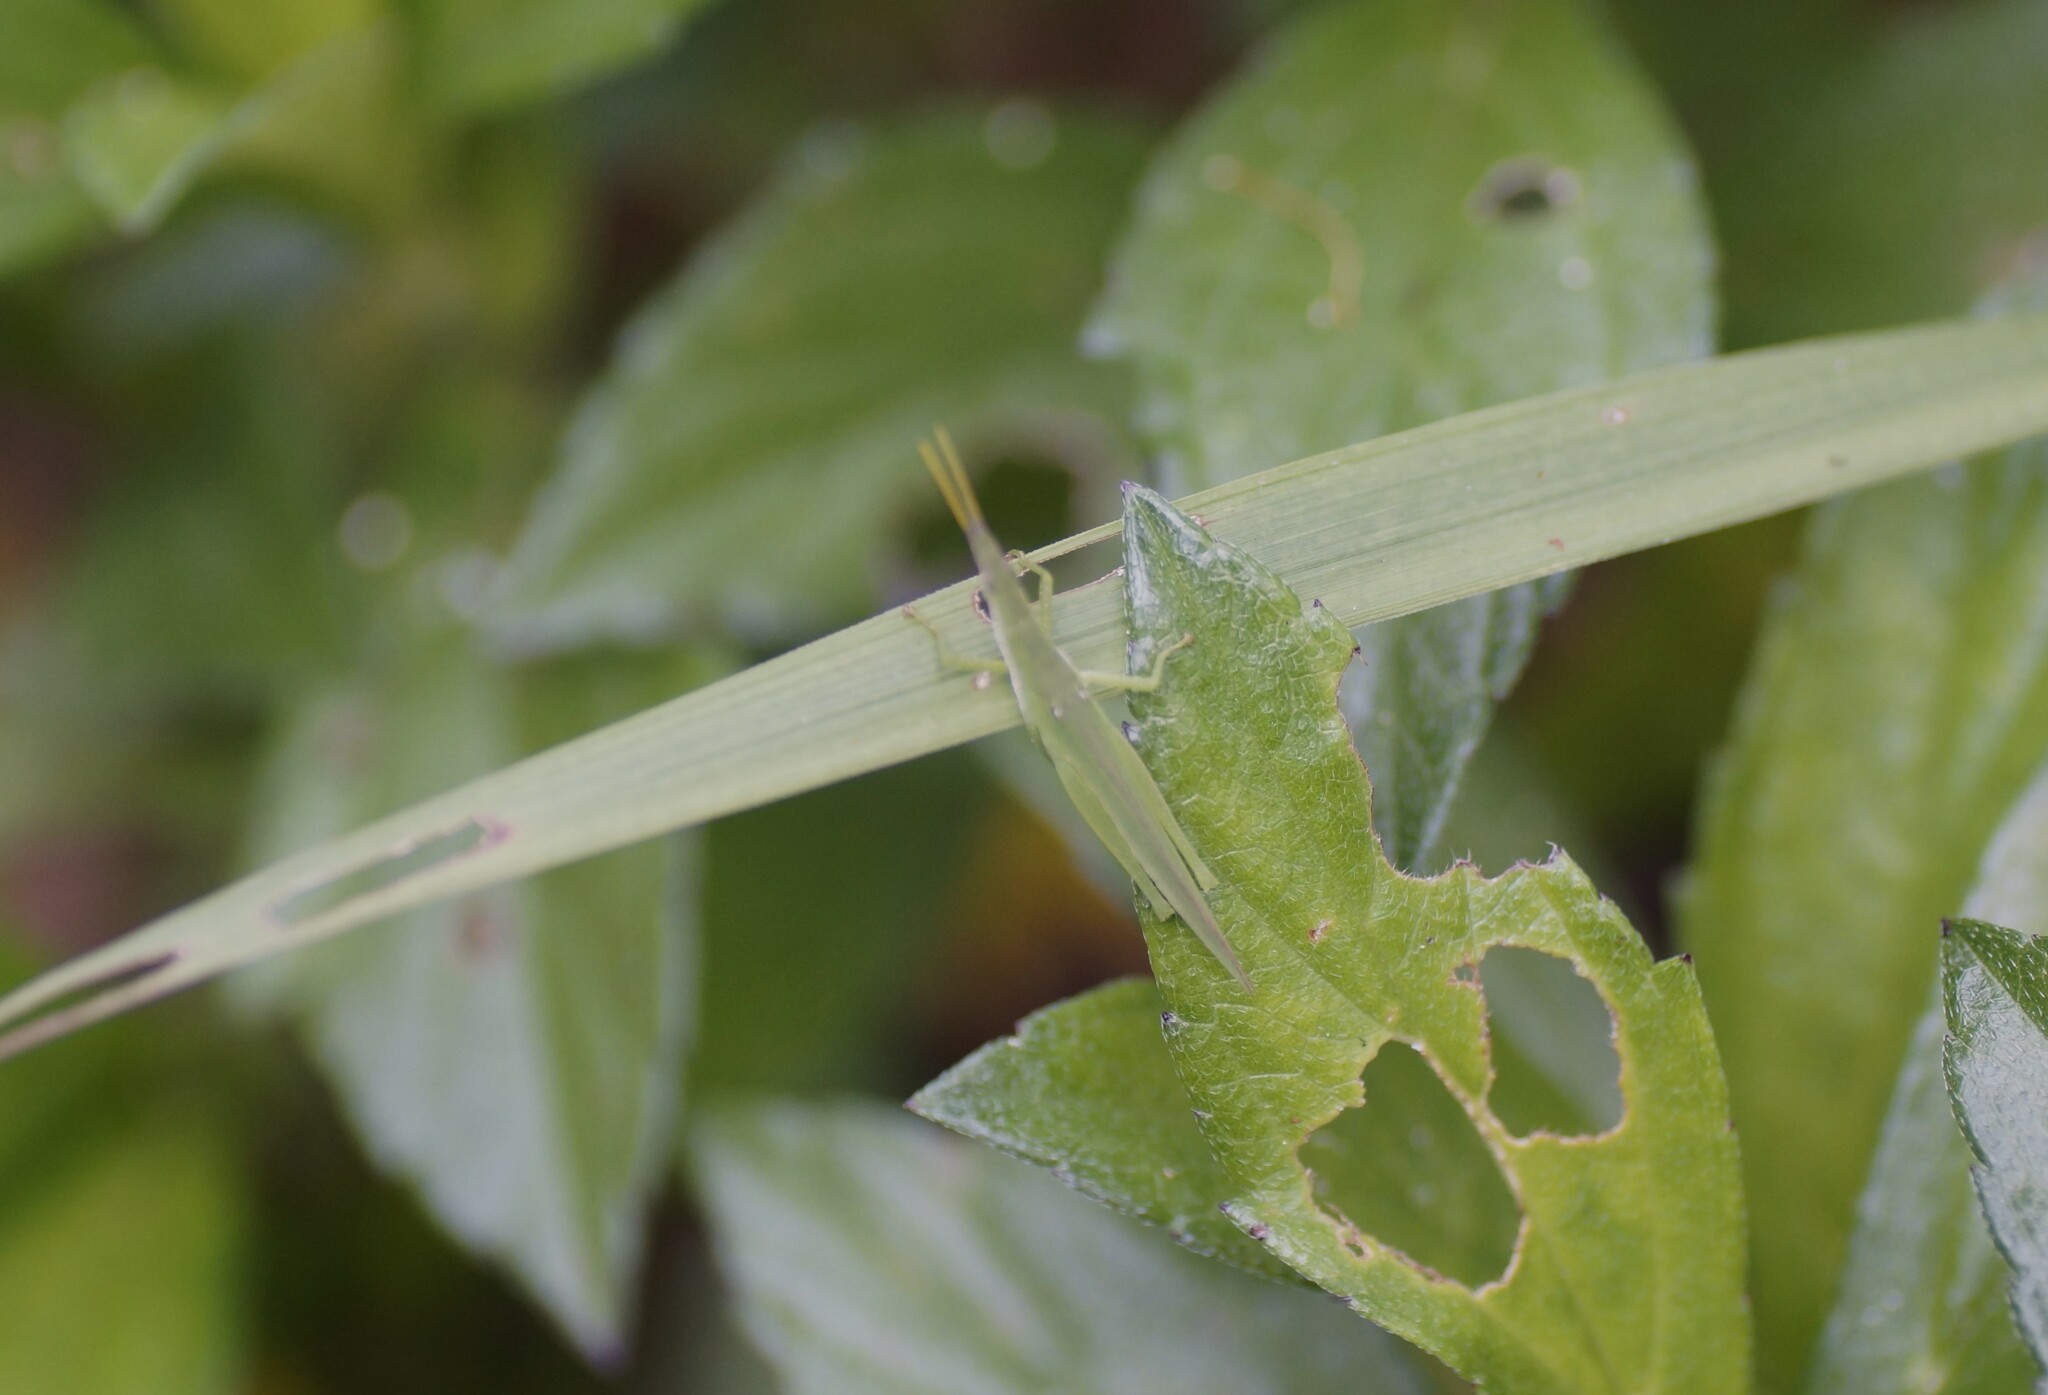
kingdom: Animalia
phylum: Arthropoda
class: Insecta
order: Orthoptera
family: Pyrgomorphidae
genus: Atractomorpha
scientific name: Atractomorpha similis
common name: Northern grass pyrgomorph
